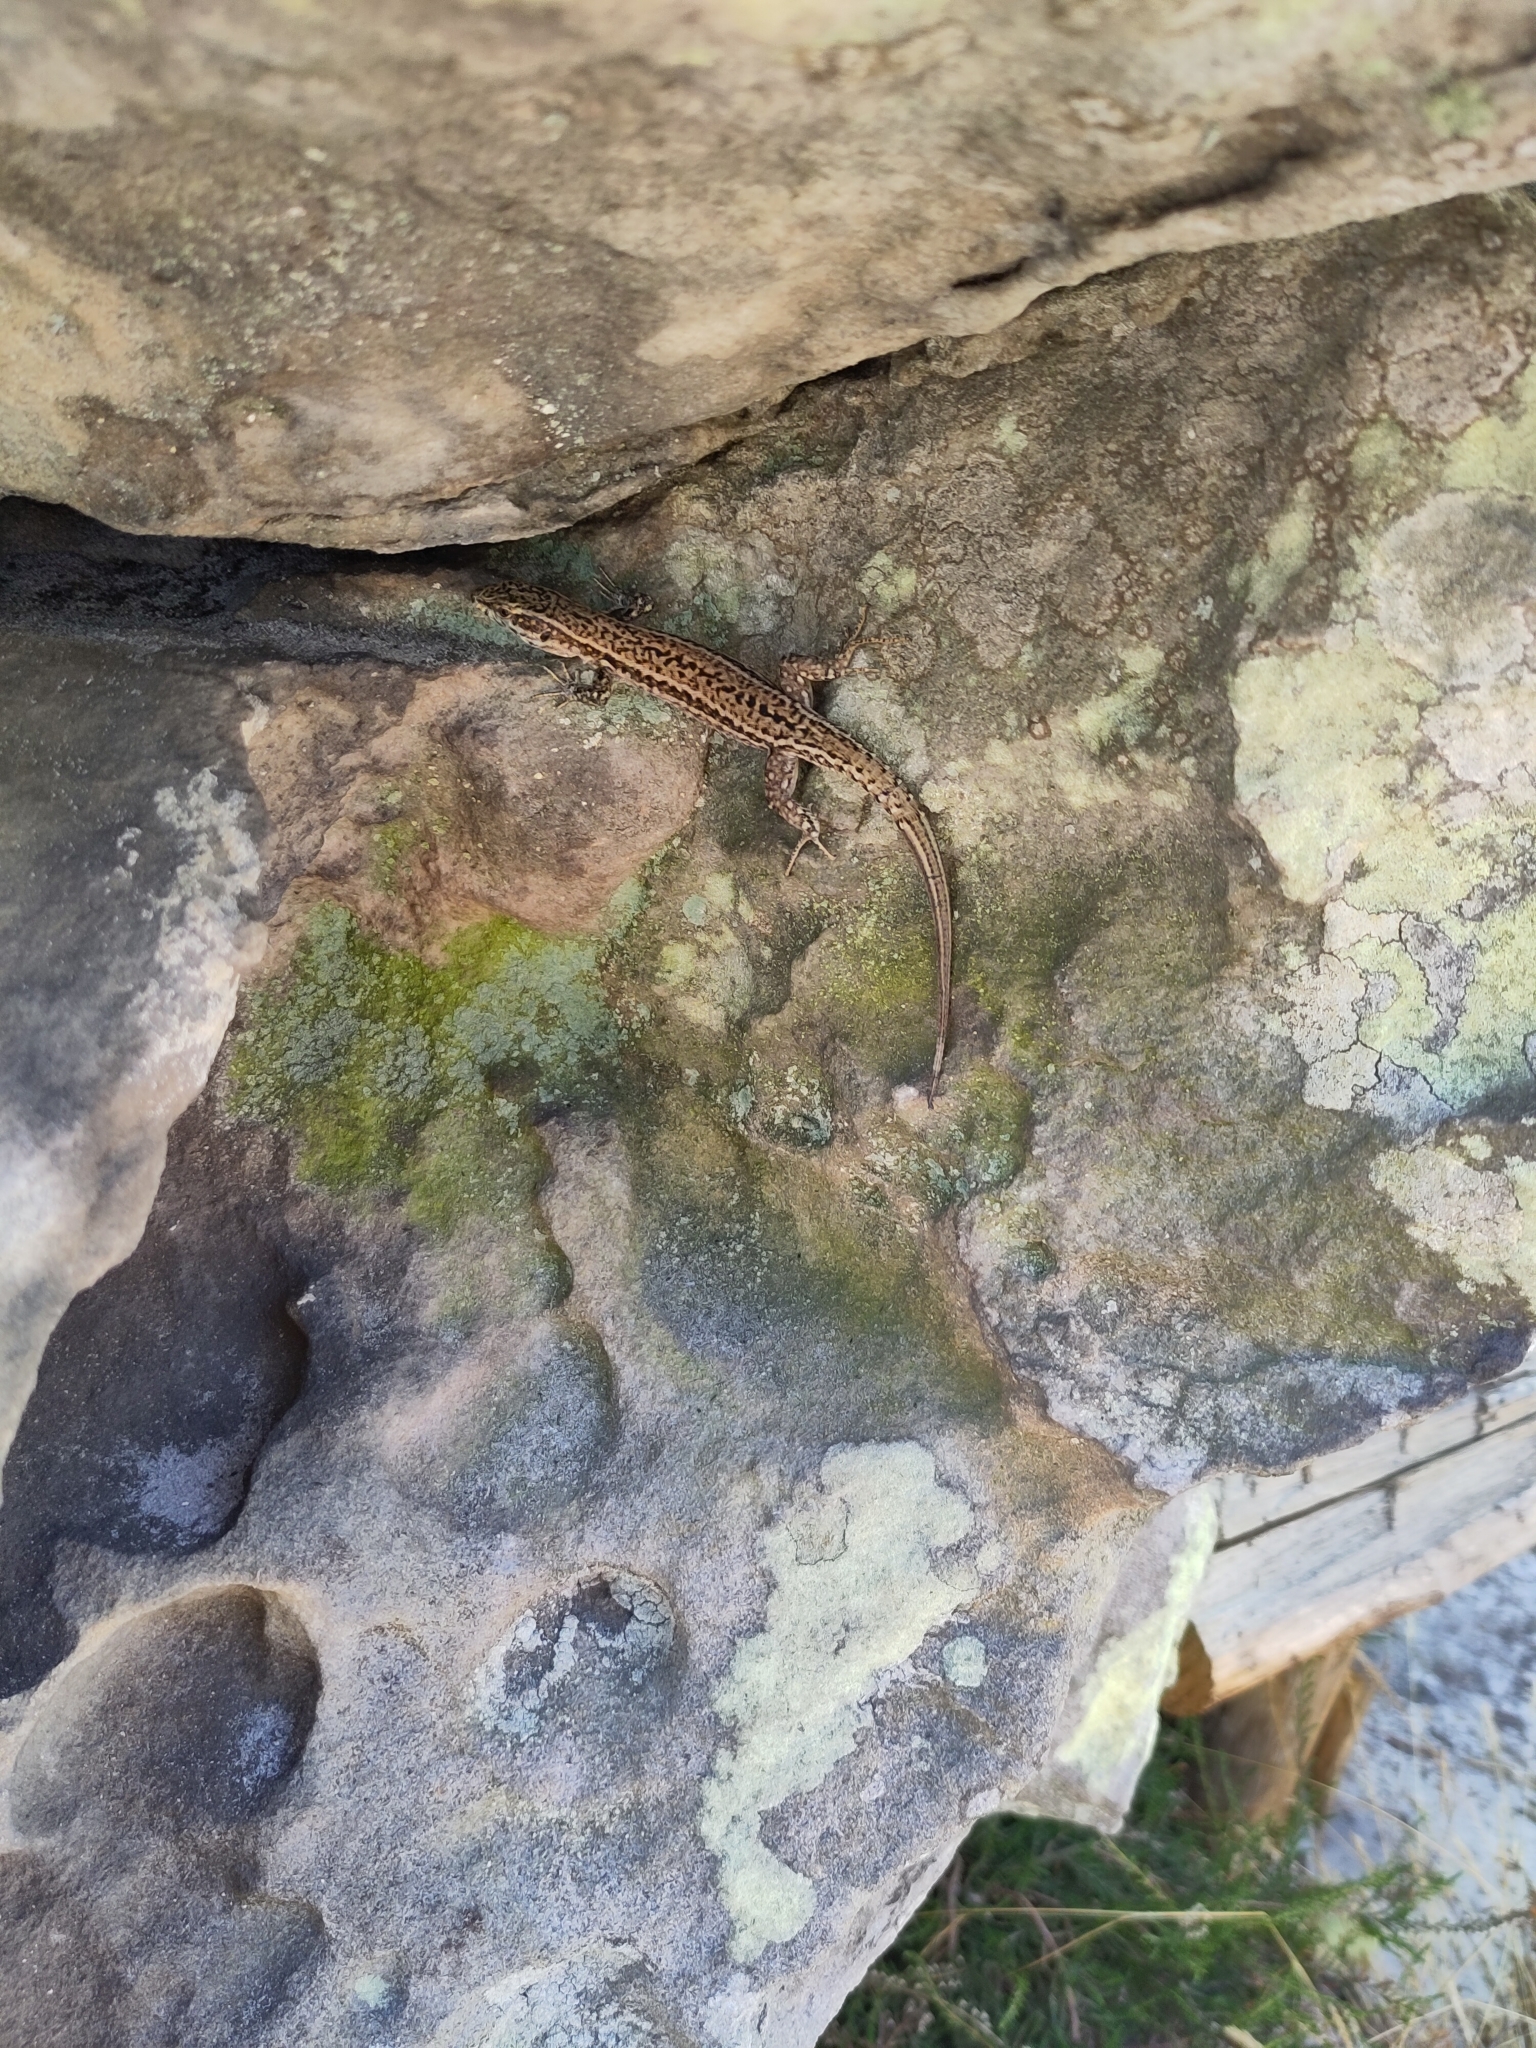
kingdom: Animalia
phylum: Chordata
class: Squamata
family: Lacertidae
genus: Podarcis
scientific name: Podarcis muralis
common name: Common wall lizard
